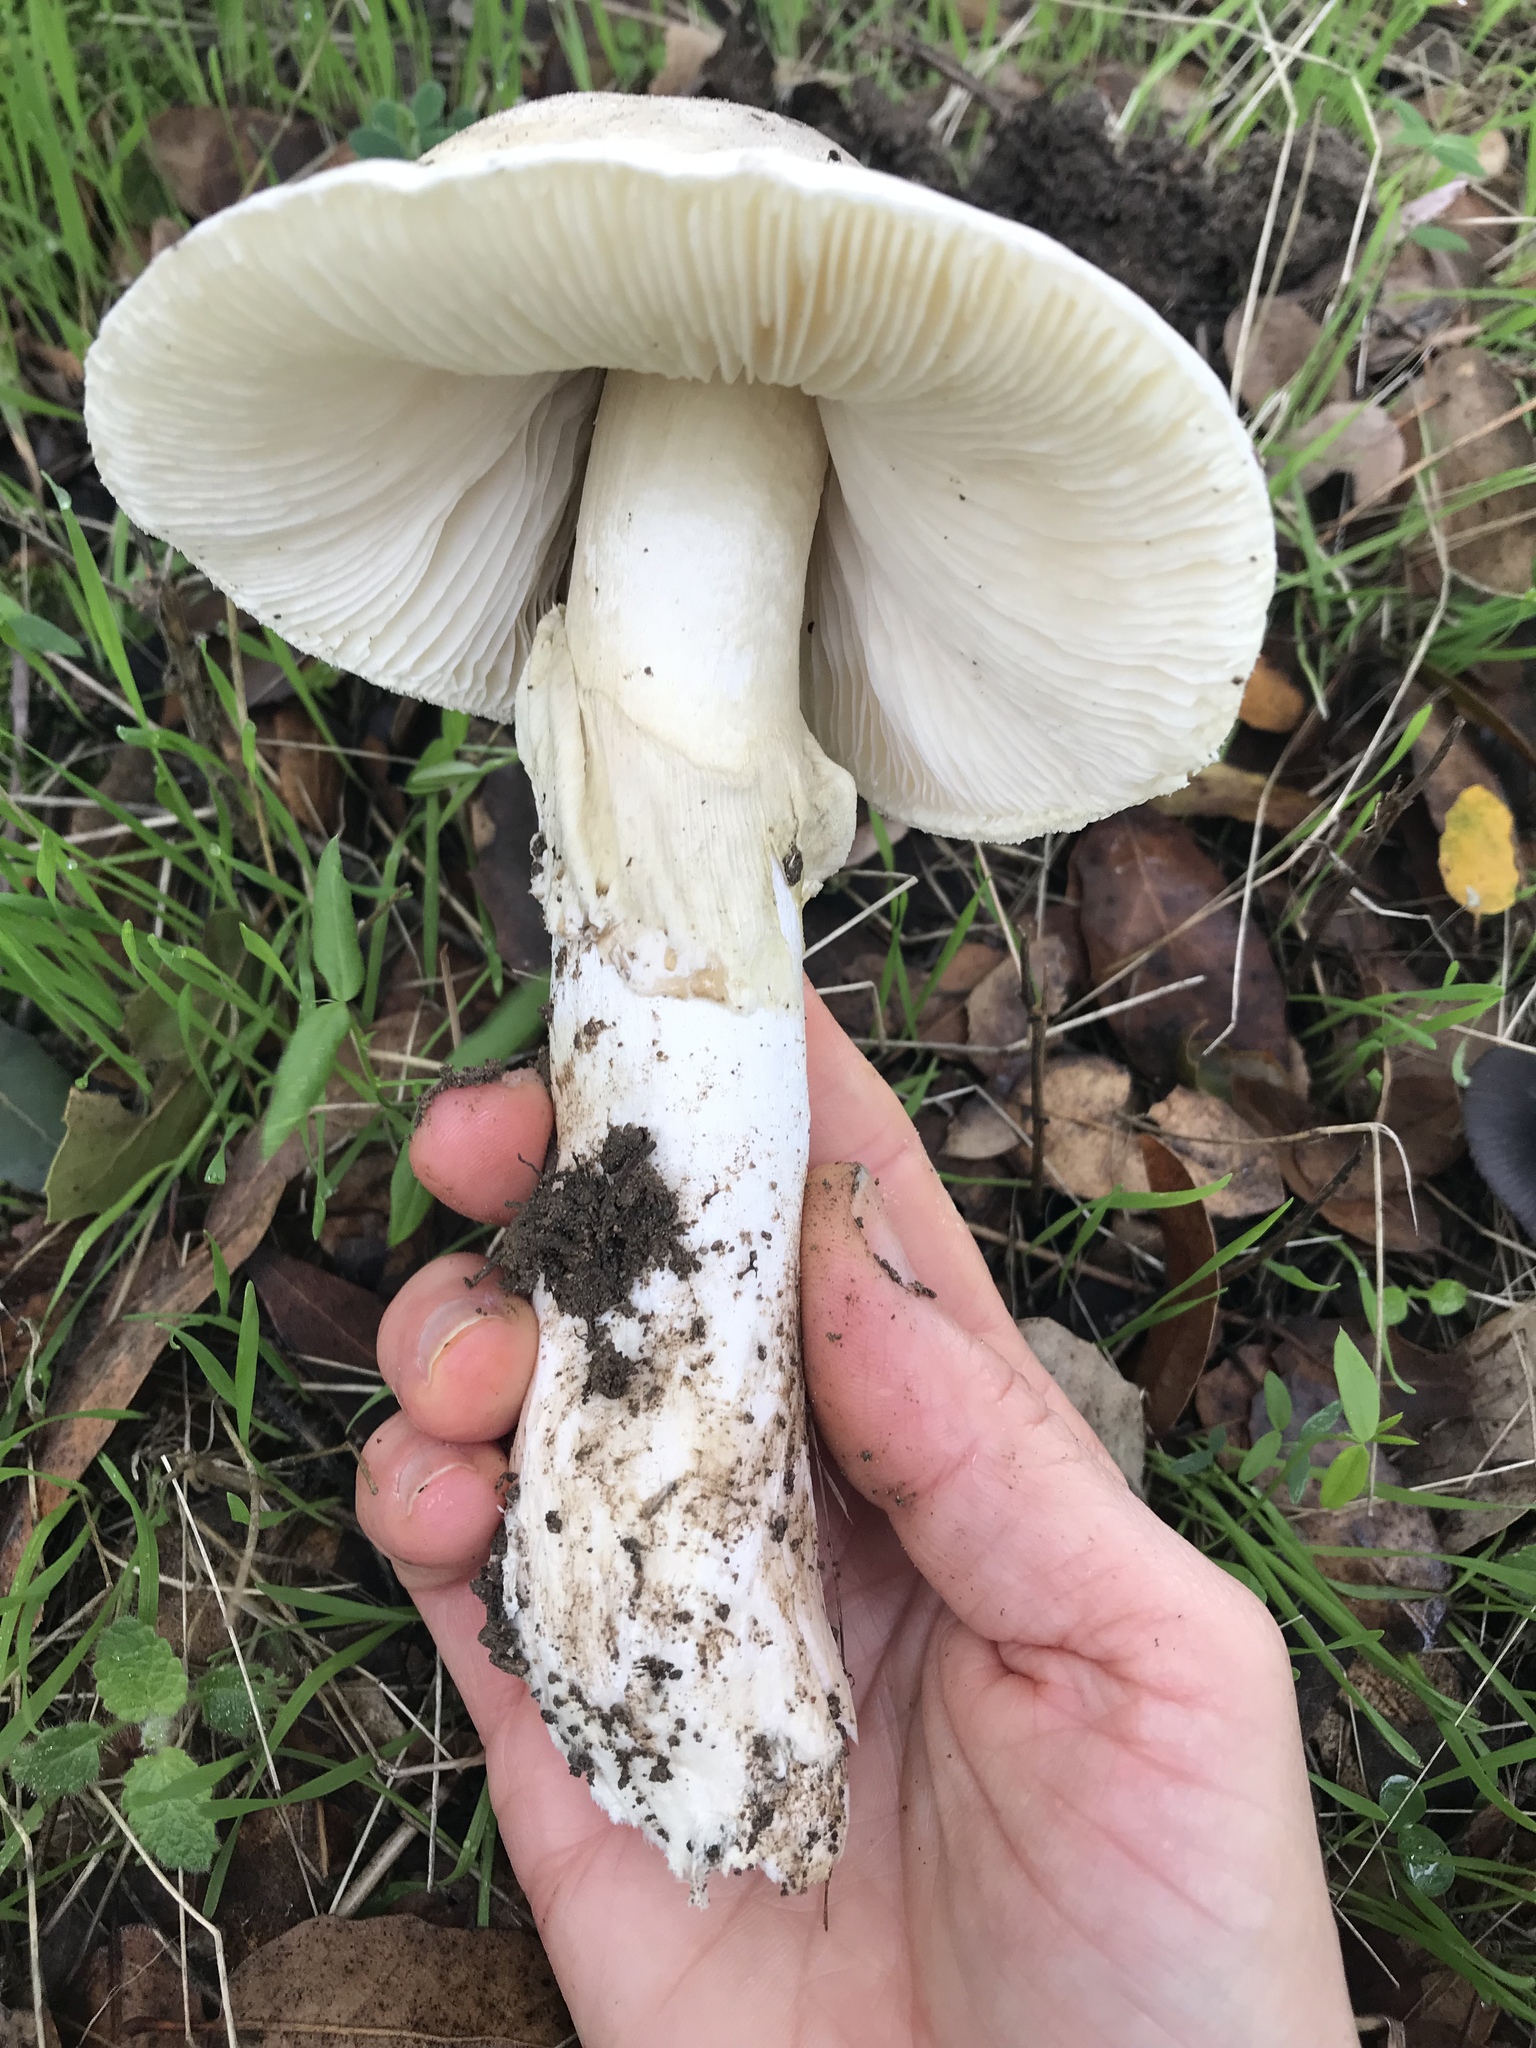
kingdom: Fungi
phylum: Basidiomycota
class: Agaricomycetes
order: Agaricales
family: Amanitaceae
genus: Amanita
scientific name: Amanita phalloides
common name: Death cap
